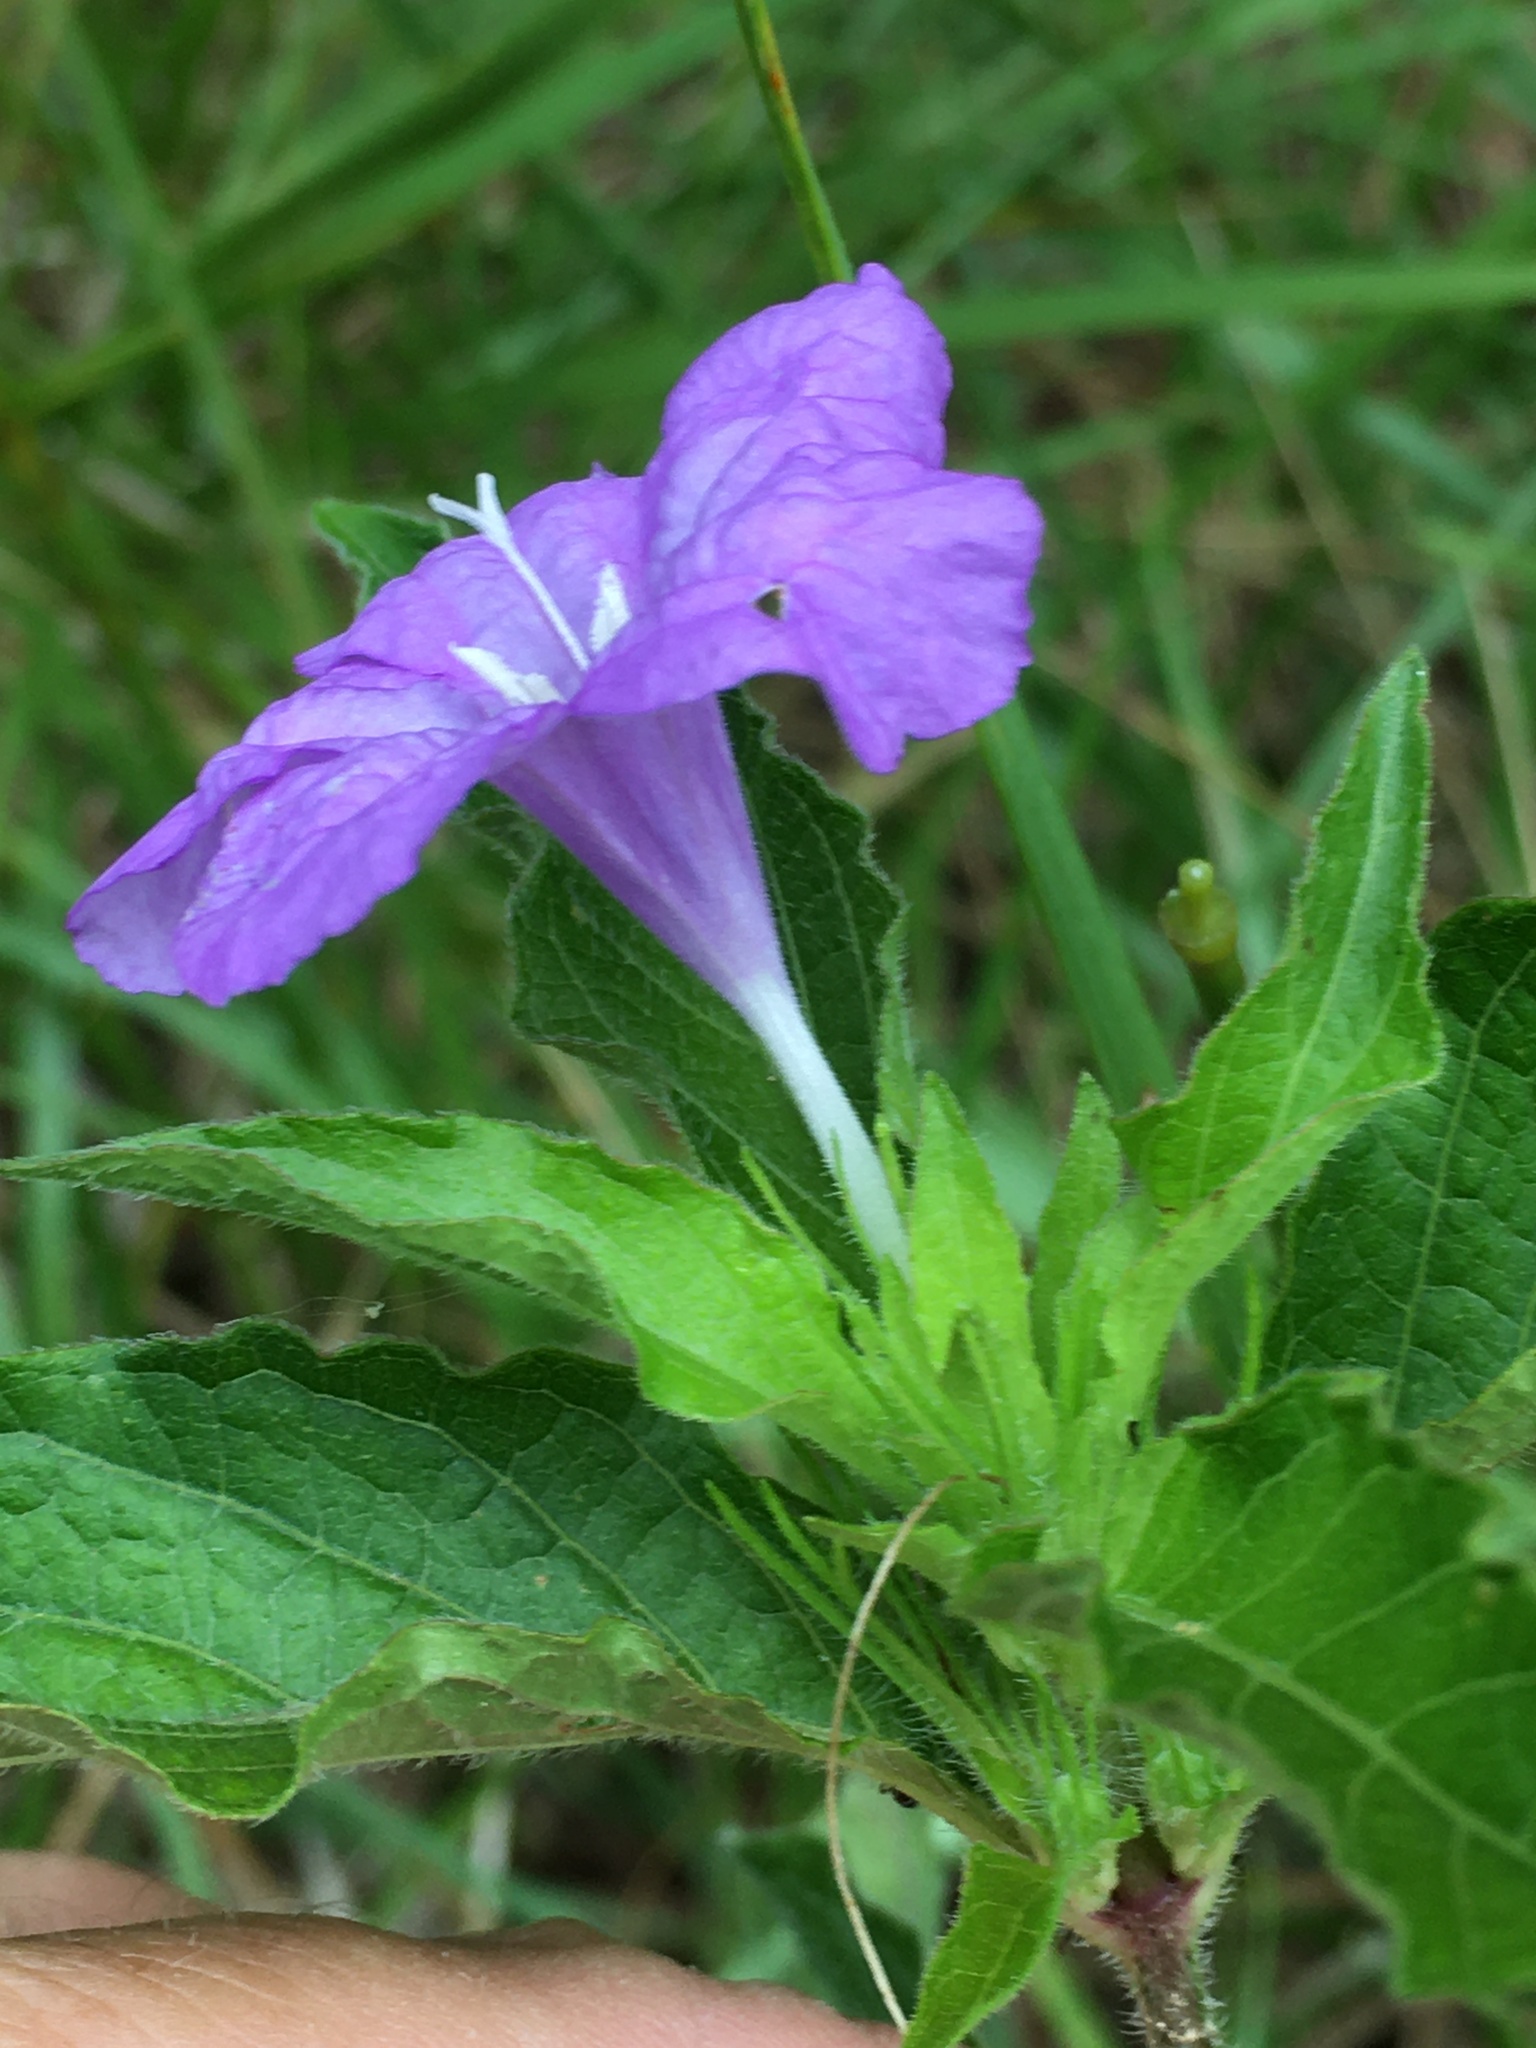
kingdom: Plantae
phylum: Tracheophyta
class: Magnoliopsida
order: Lamiales
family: Acanthaceae
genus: Ruellia
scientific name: Ruellia caroliniensis
